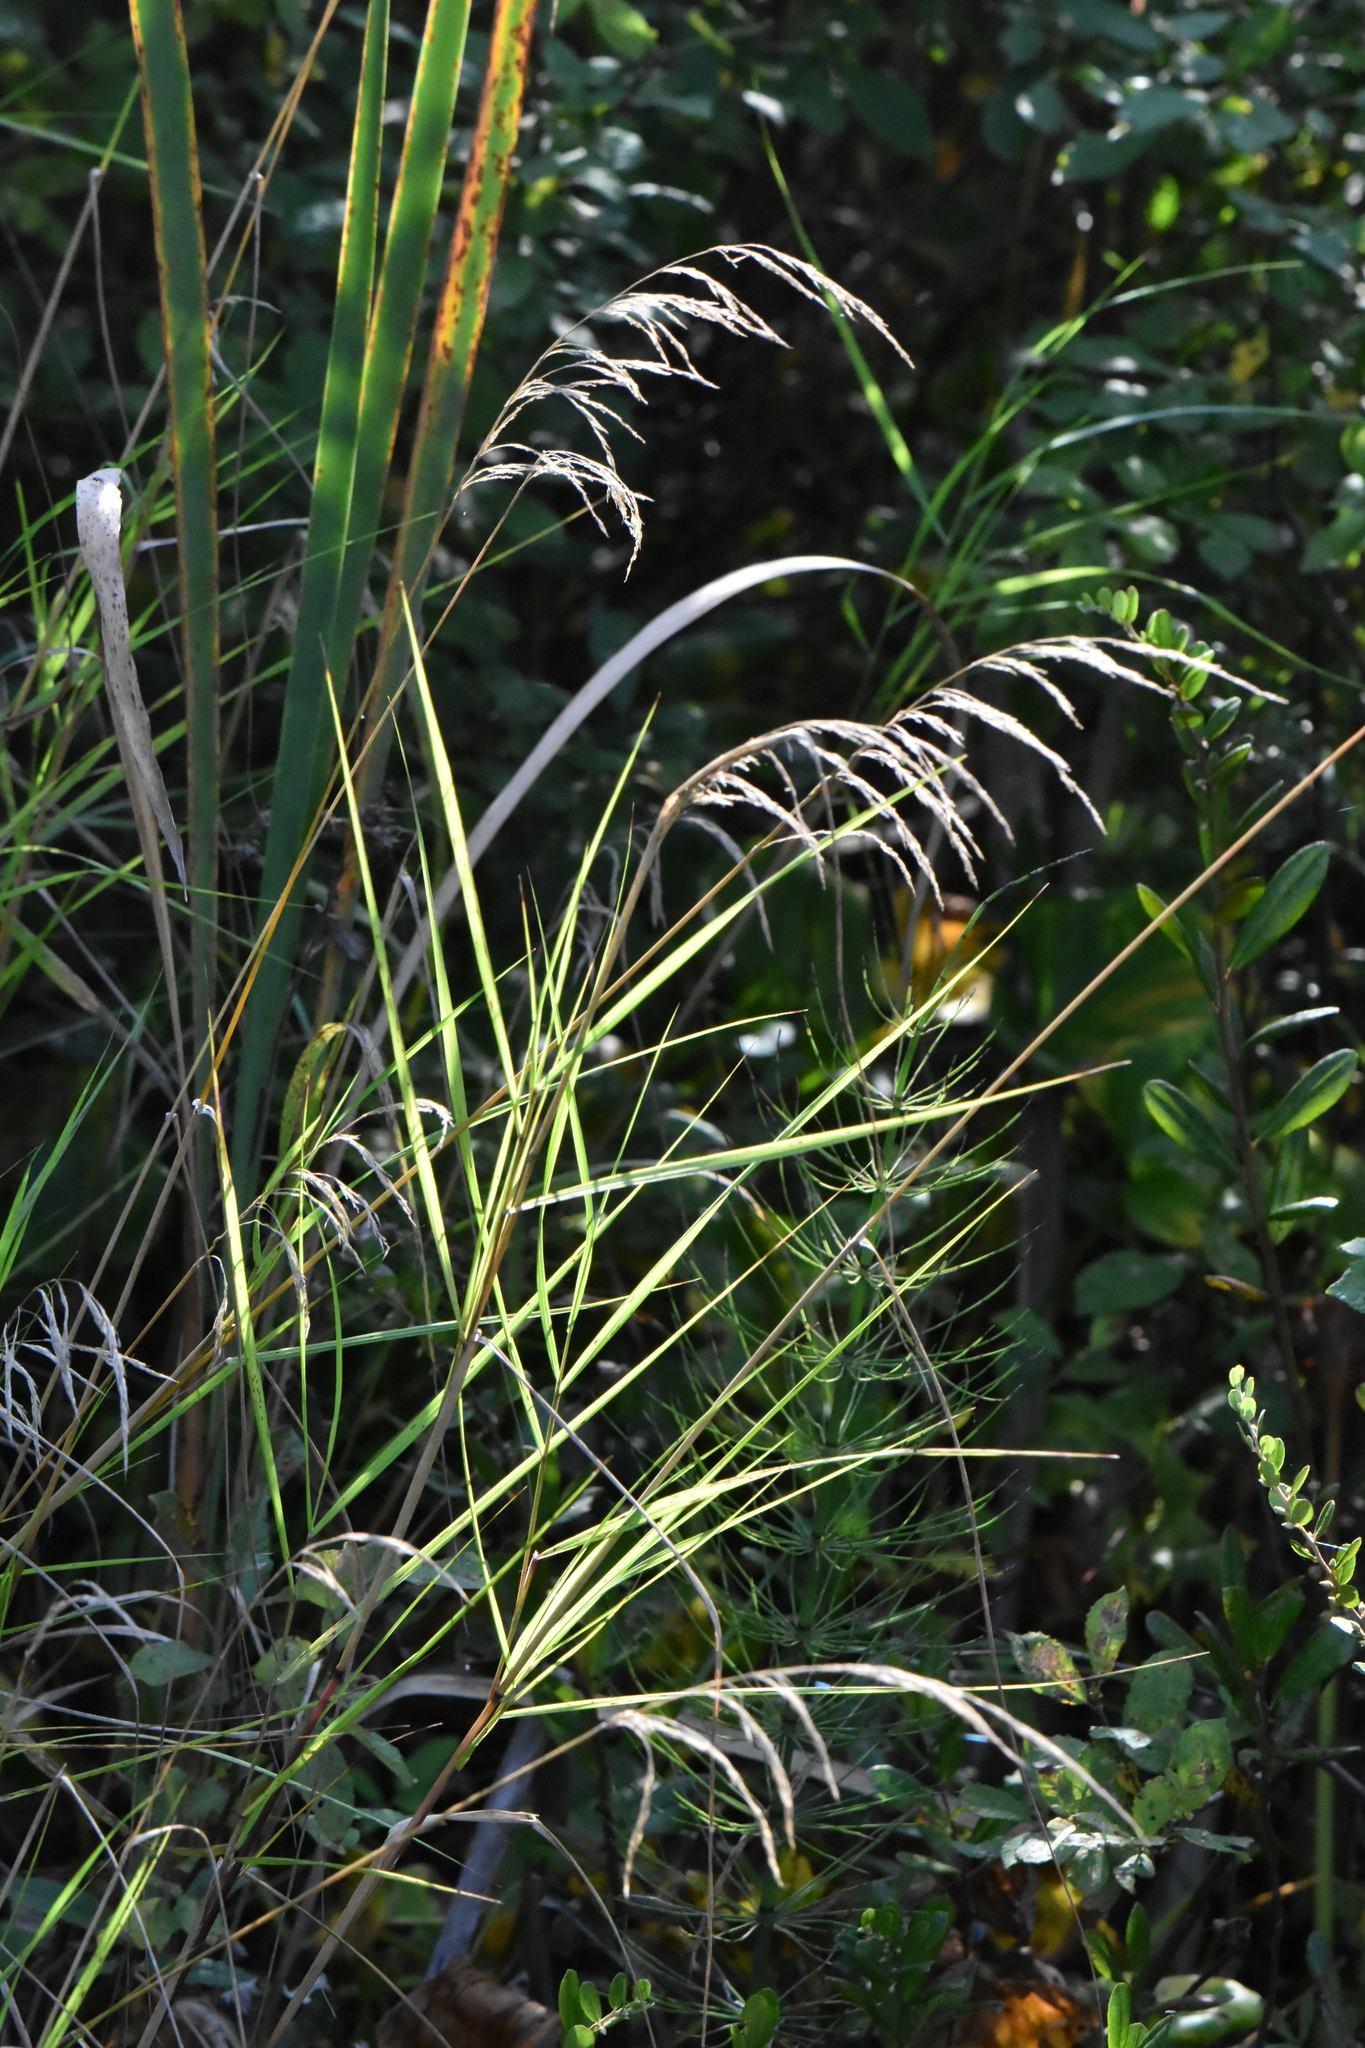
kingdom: Plantae
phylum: Tracheophyta
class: Liliopsida
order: Poales
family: Poaceae
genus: Calamagrostis
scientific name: Calamagrostis canescens
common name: Purple small-reed
